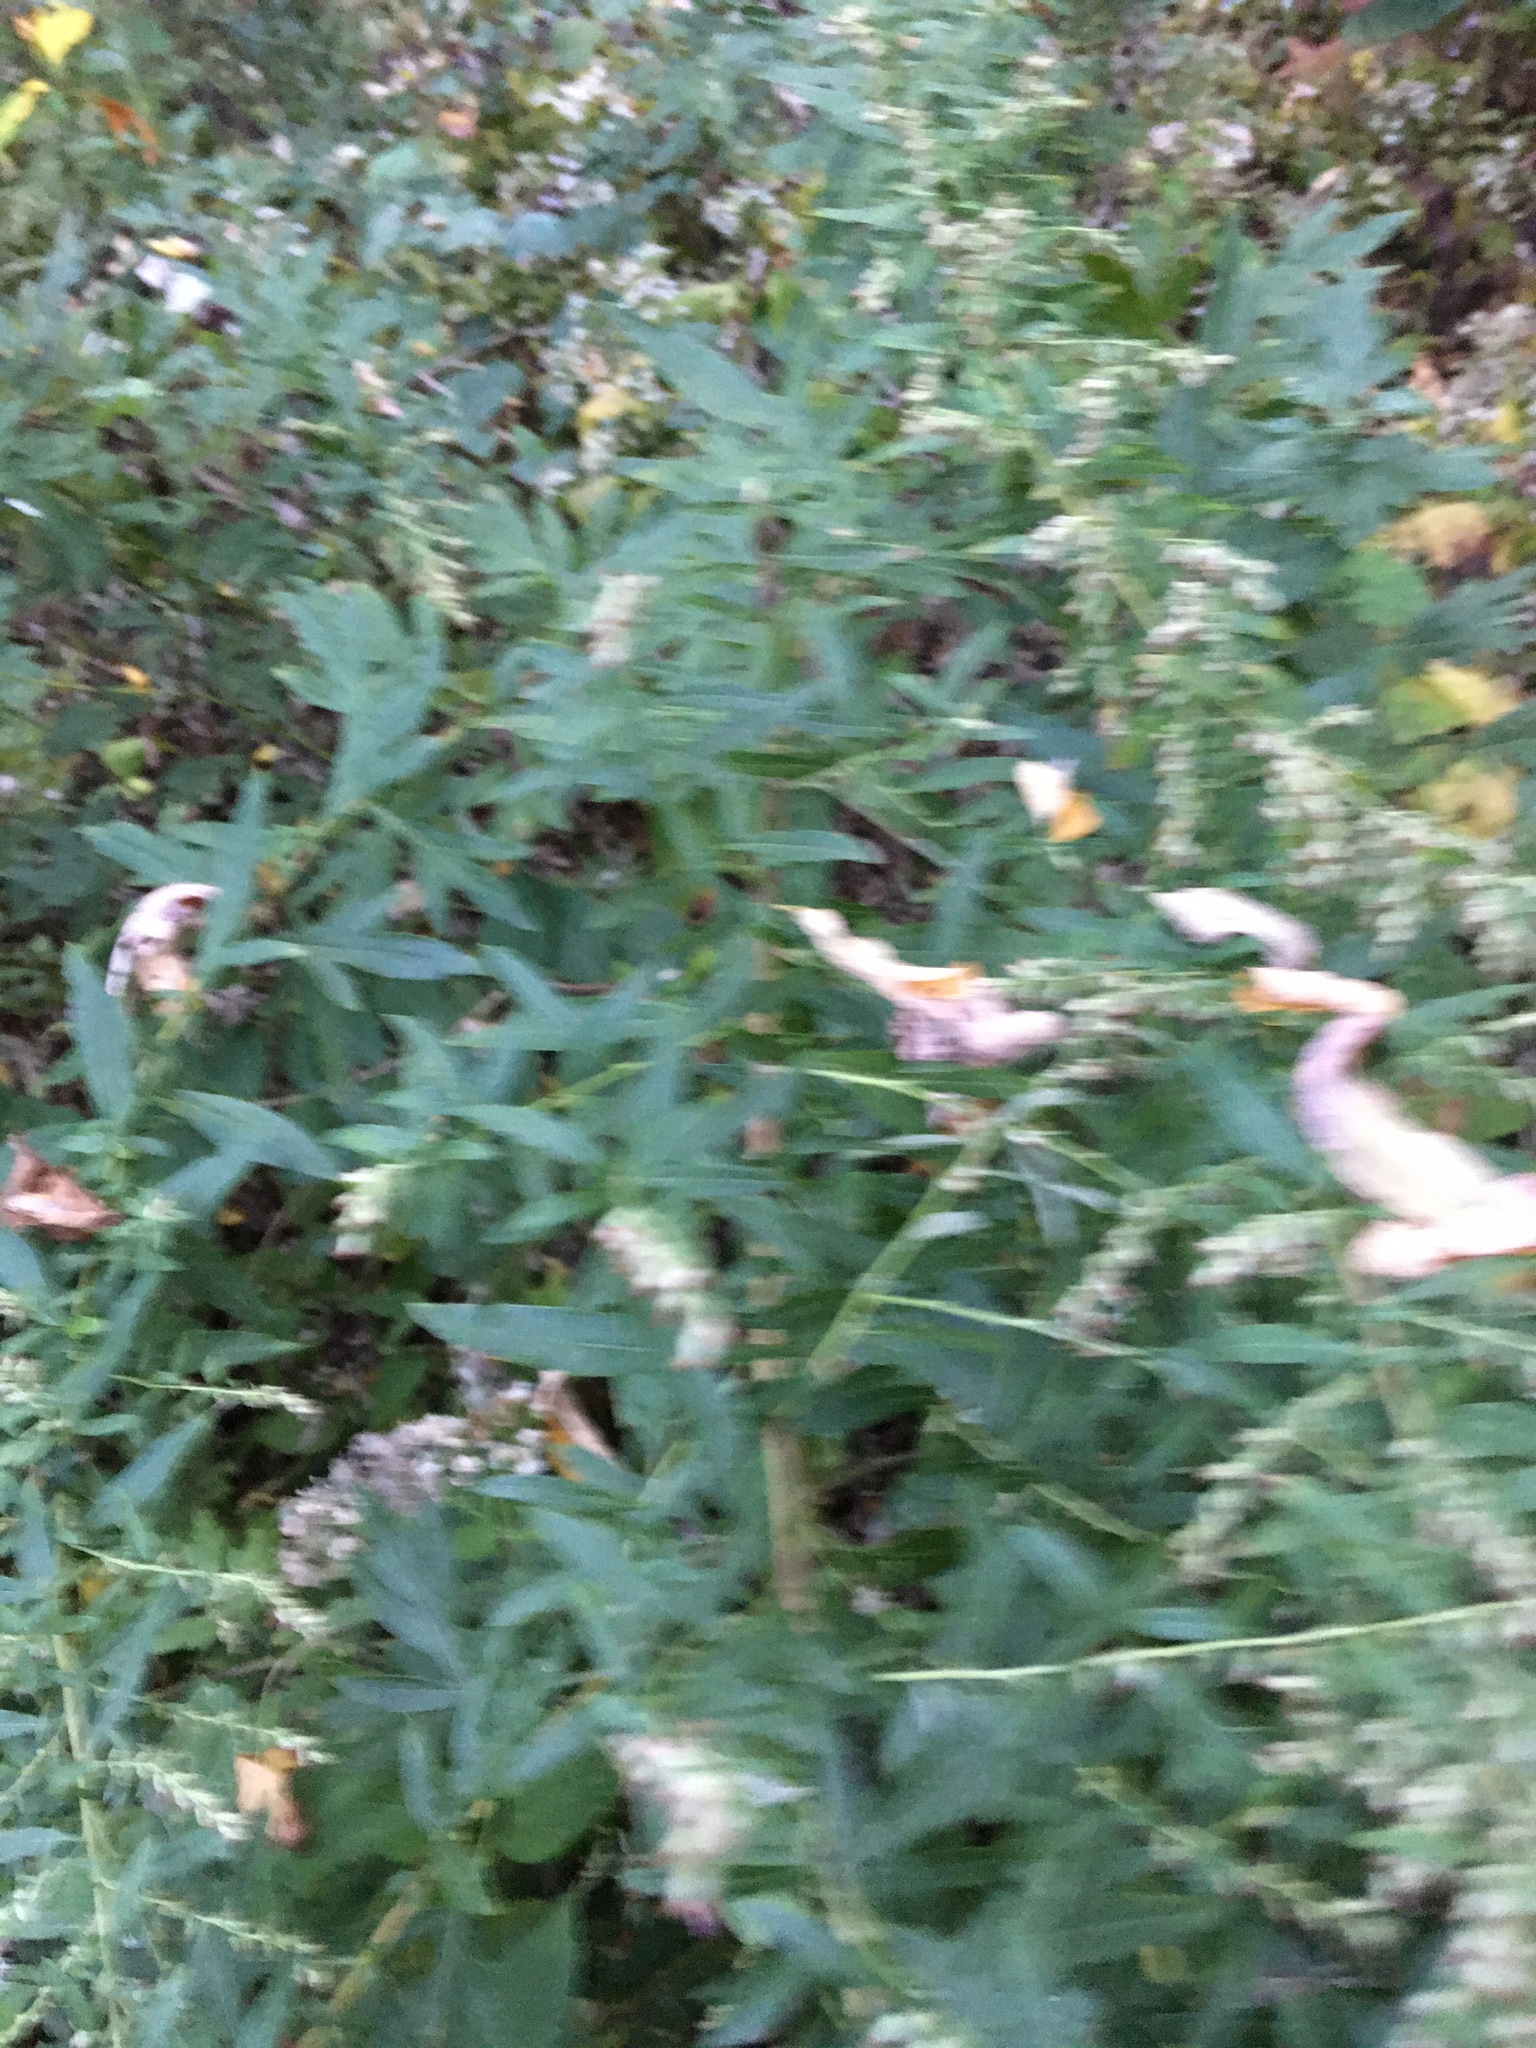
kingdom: Plantae
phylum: Tracheophyta
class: Magnoliopsida
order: Asterales
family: Asteraceae
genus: Artemisia
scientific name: Artemisia vulgaris
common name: Mugwort
